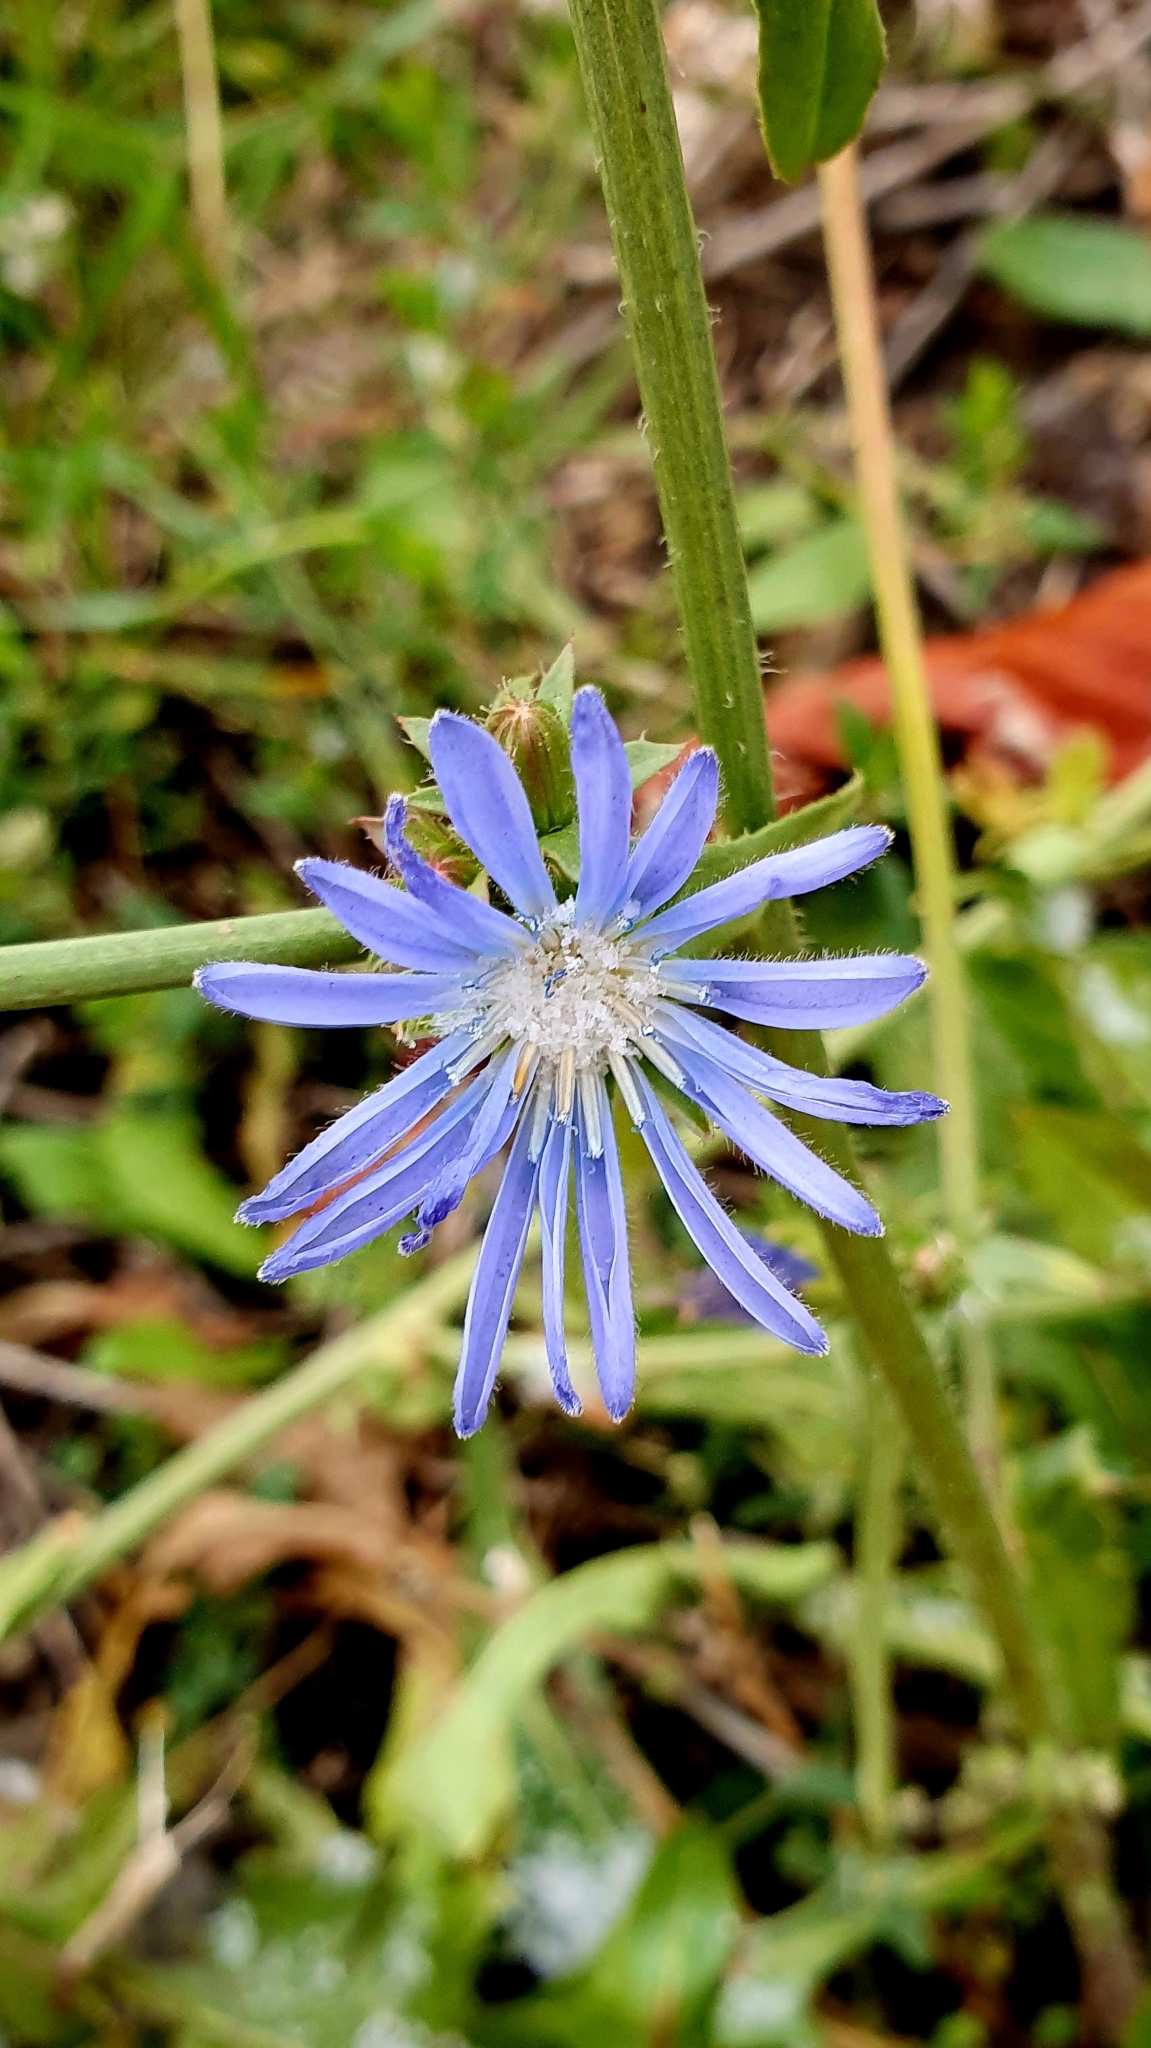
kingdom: Plantae
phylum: Tracheophyta
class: Magnoliopsida
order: Asterales
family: Asteraceae
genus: Cichorium
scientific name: Cichorium intybus
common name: Chicory
